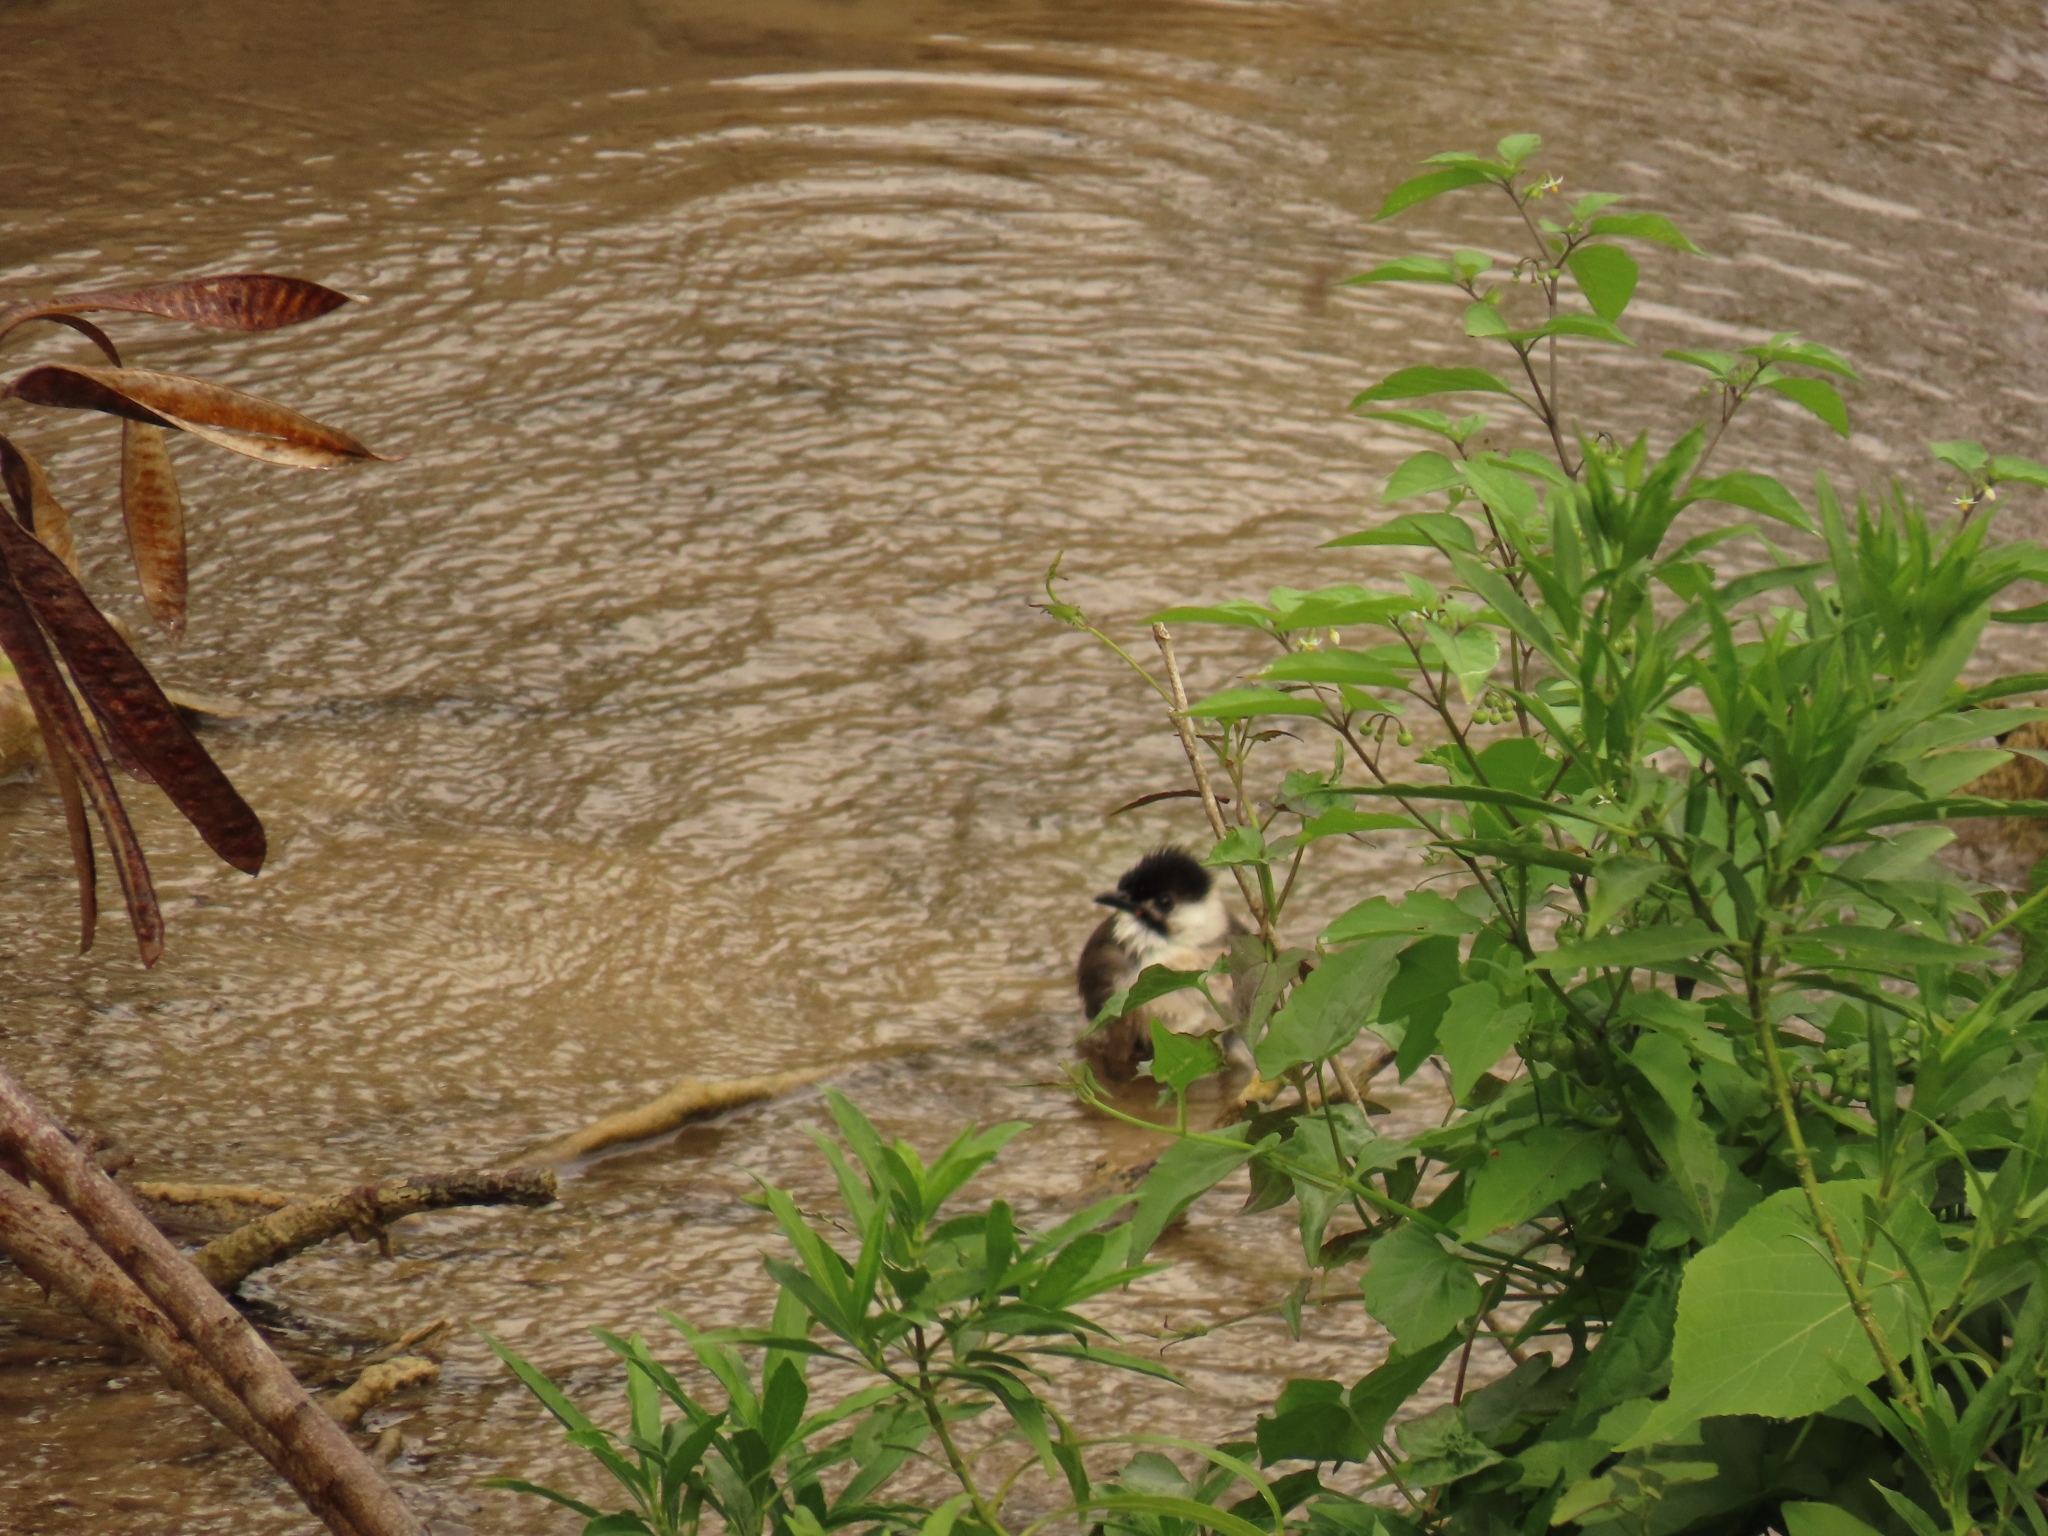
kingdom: Animalia
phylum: Chordata
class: Aves
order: Passeriformes
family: Pycnonotidae
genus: Pycnonotus
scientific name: Pycnonotus taivanus
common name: Styan's bulbul
